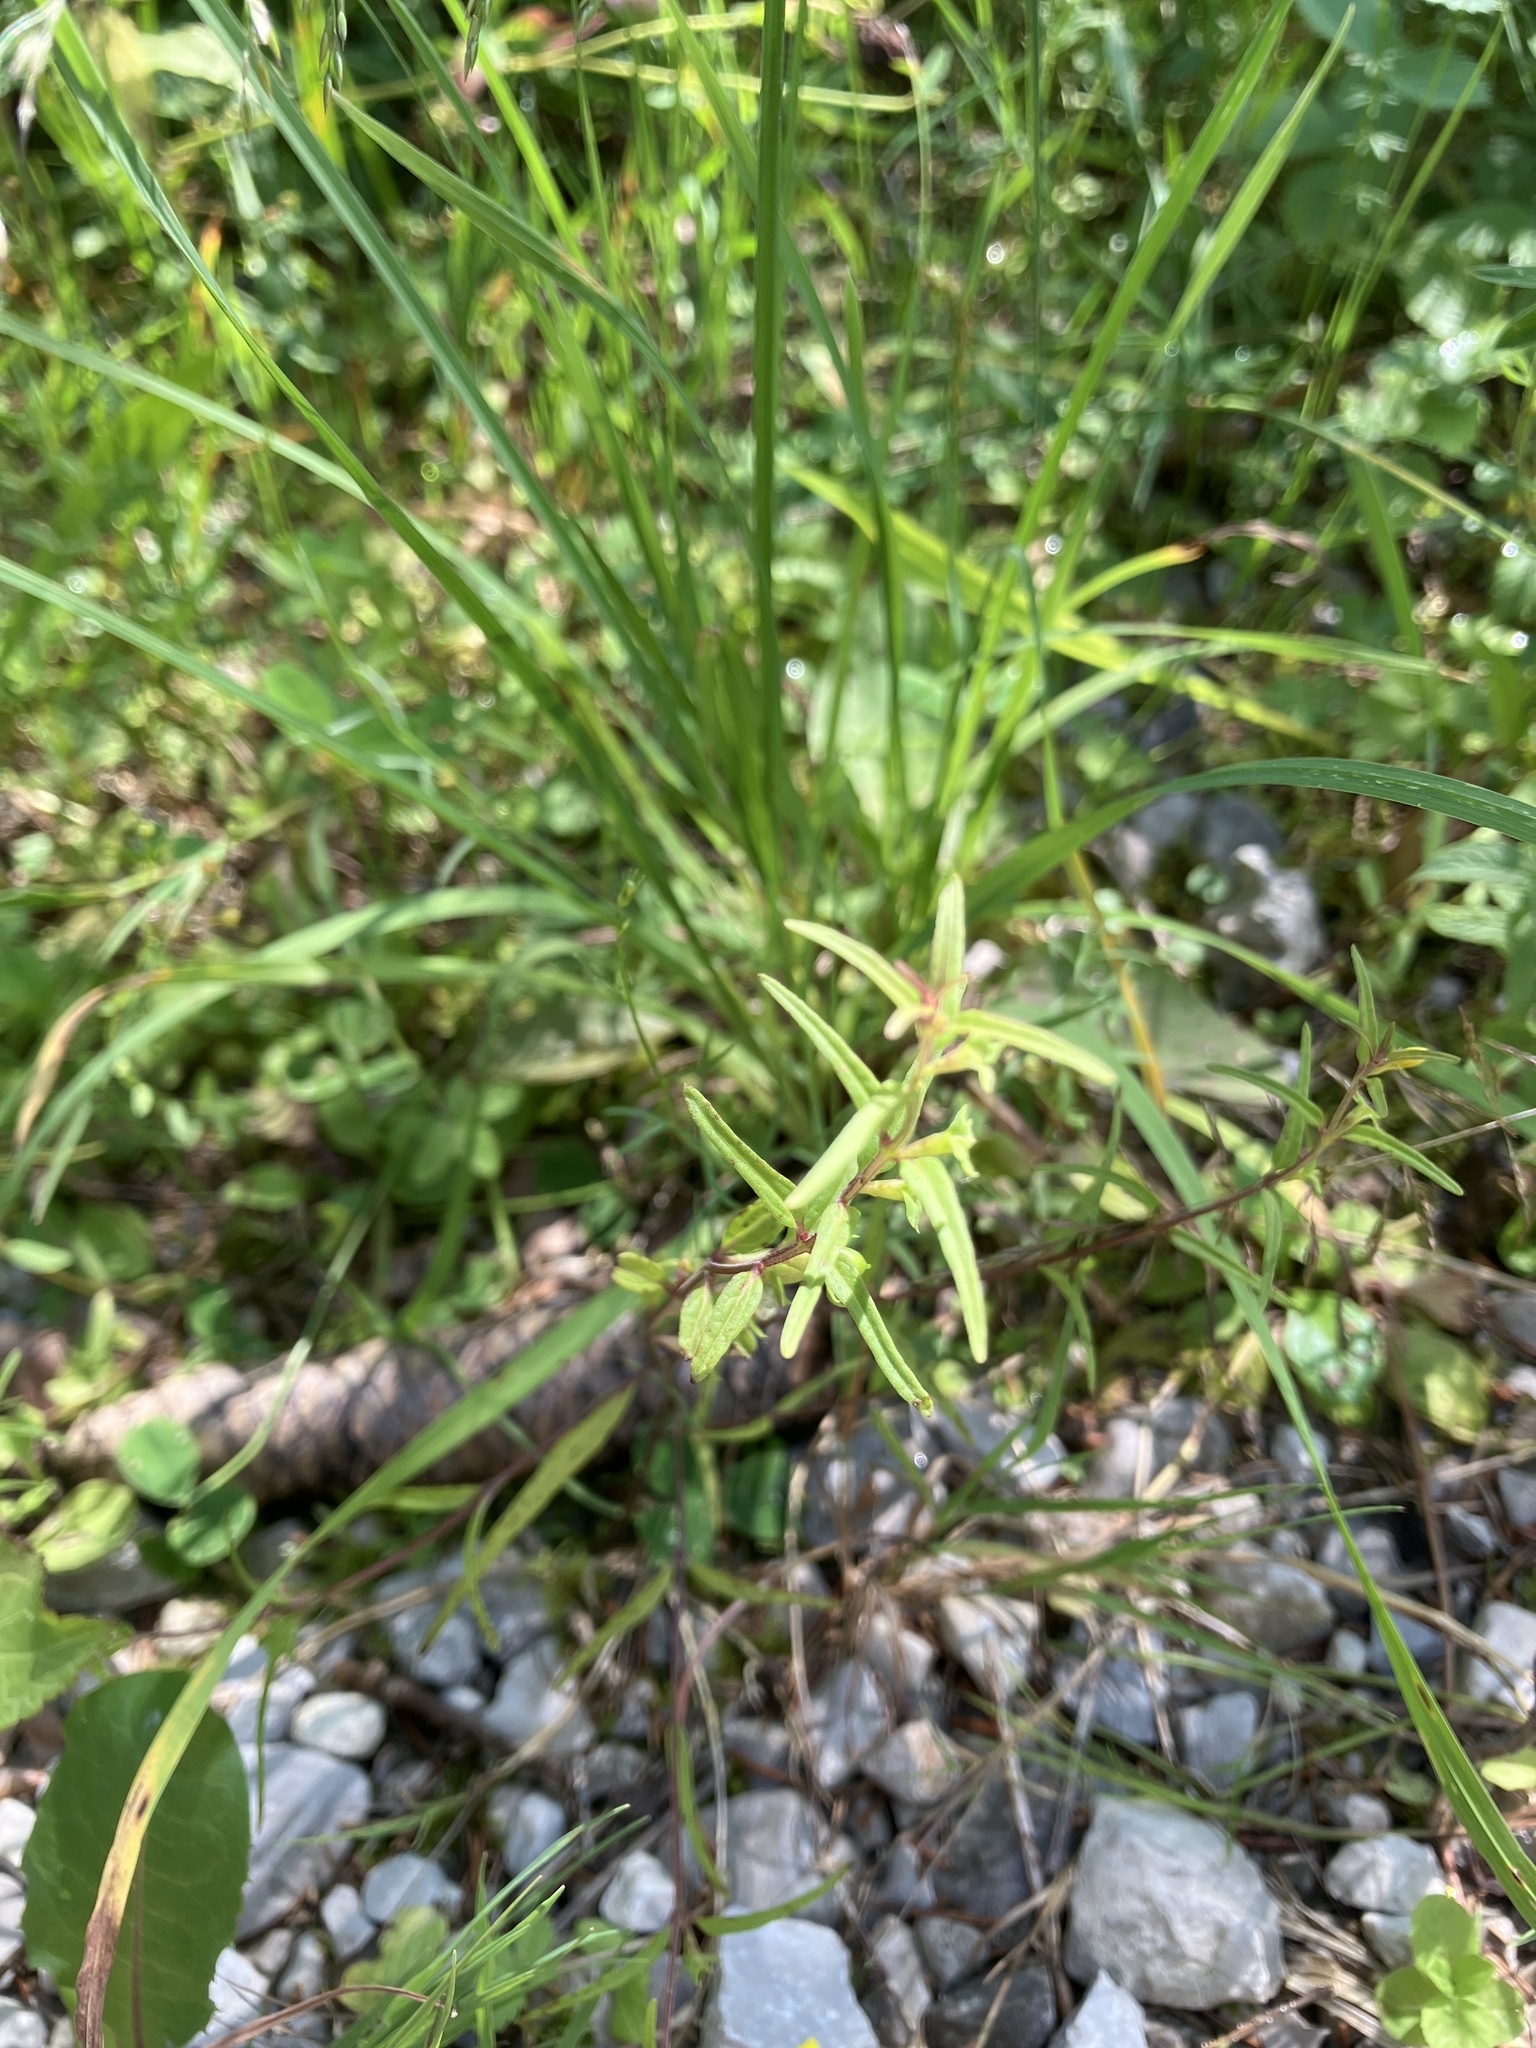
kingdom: Plantae
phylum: Tracheophyta
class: Magnoliopsida
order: Lamiales
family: Orobanchaceae
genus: Melampyrum
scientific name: Melampyrum sylvaticum
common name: Small cow-wheat
